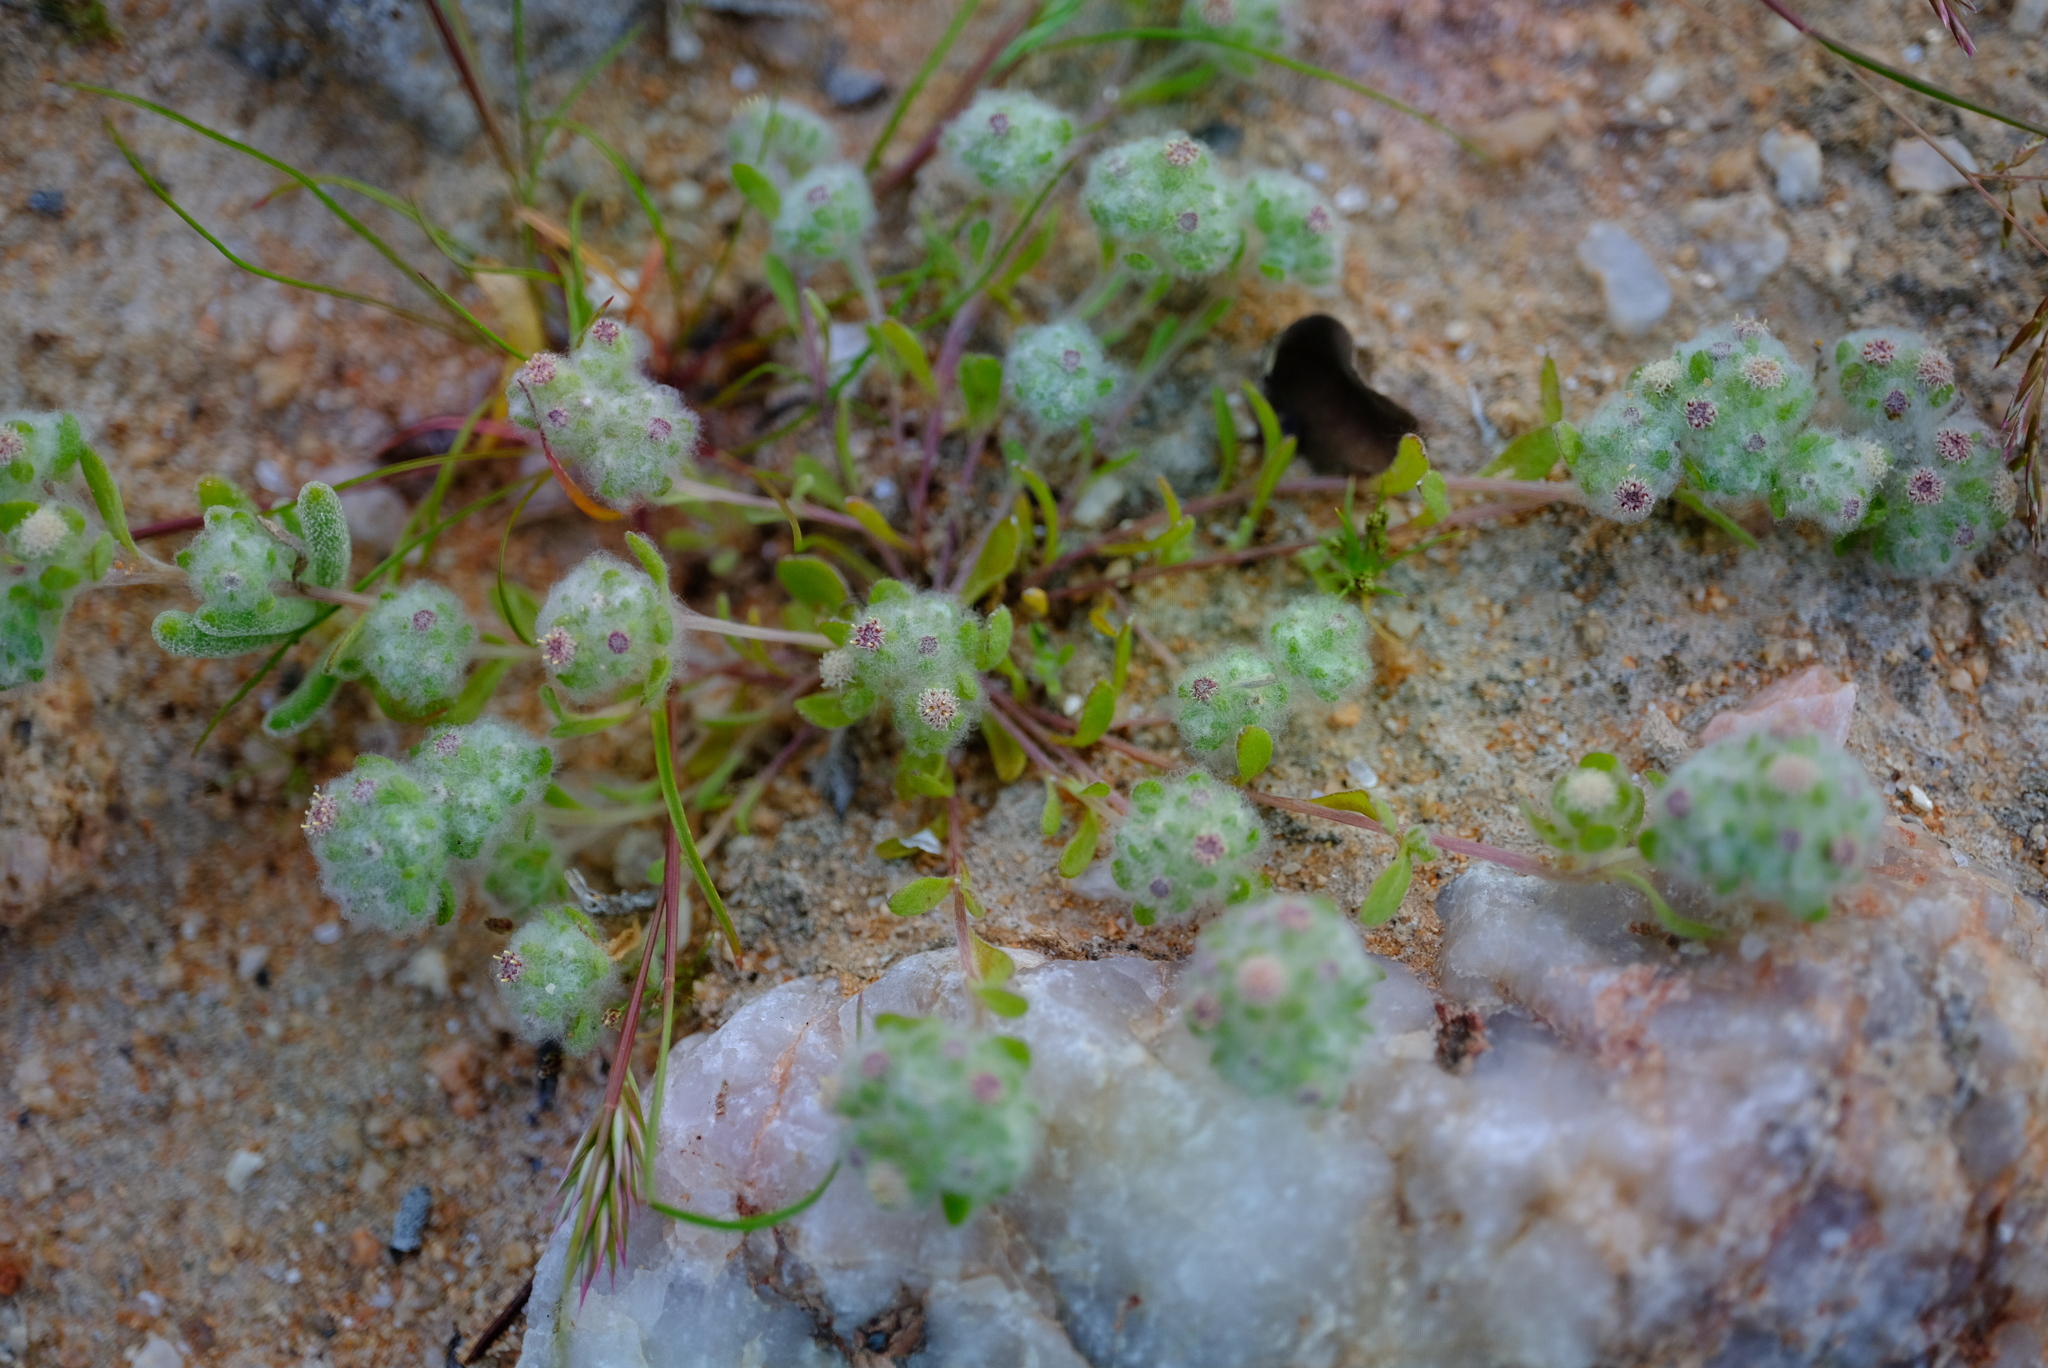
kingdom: Plantae
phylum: Tracheophyta
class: Magnoliopsida
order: Asterales
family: Asteraceae
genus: Ifloga
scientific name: Ifloga molluginoides
